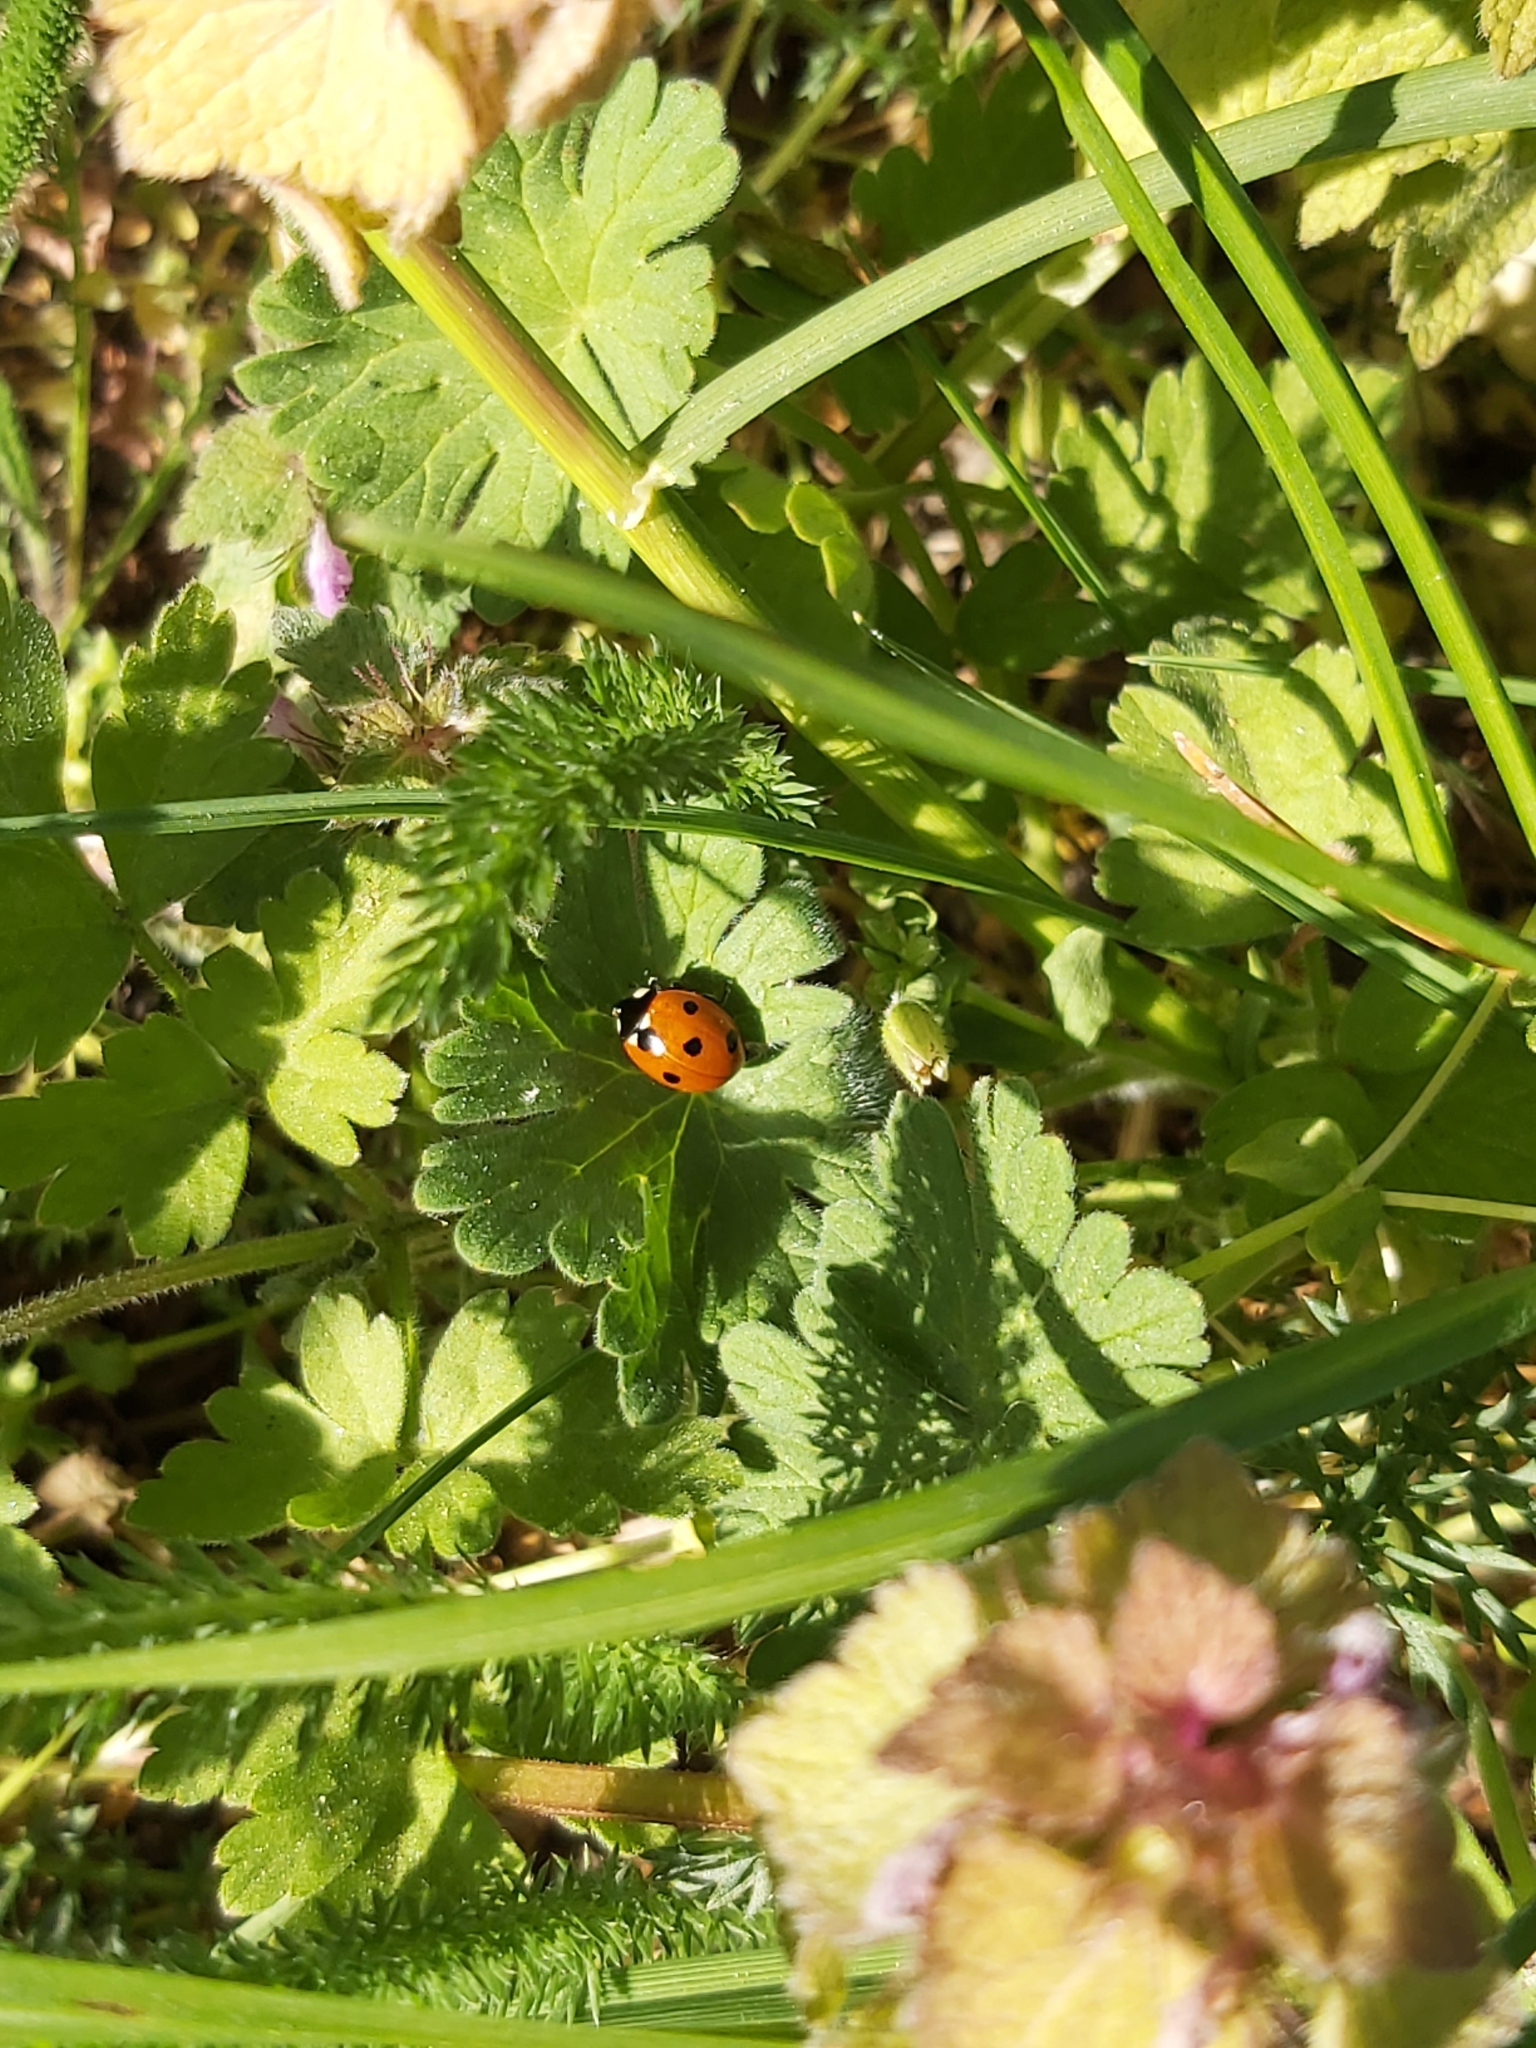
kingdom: Animalia
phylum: Arthropoda
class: Insecta
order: Coleoptera
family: Coccinellidae
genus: Coccinella
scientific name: Coccinella septempunctata
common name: Sevenspotted lady beetle
